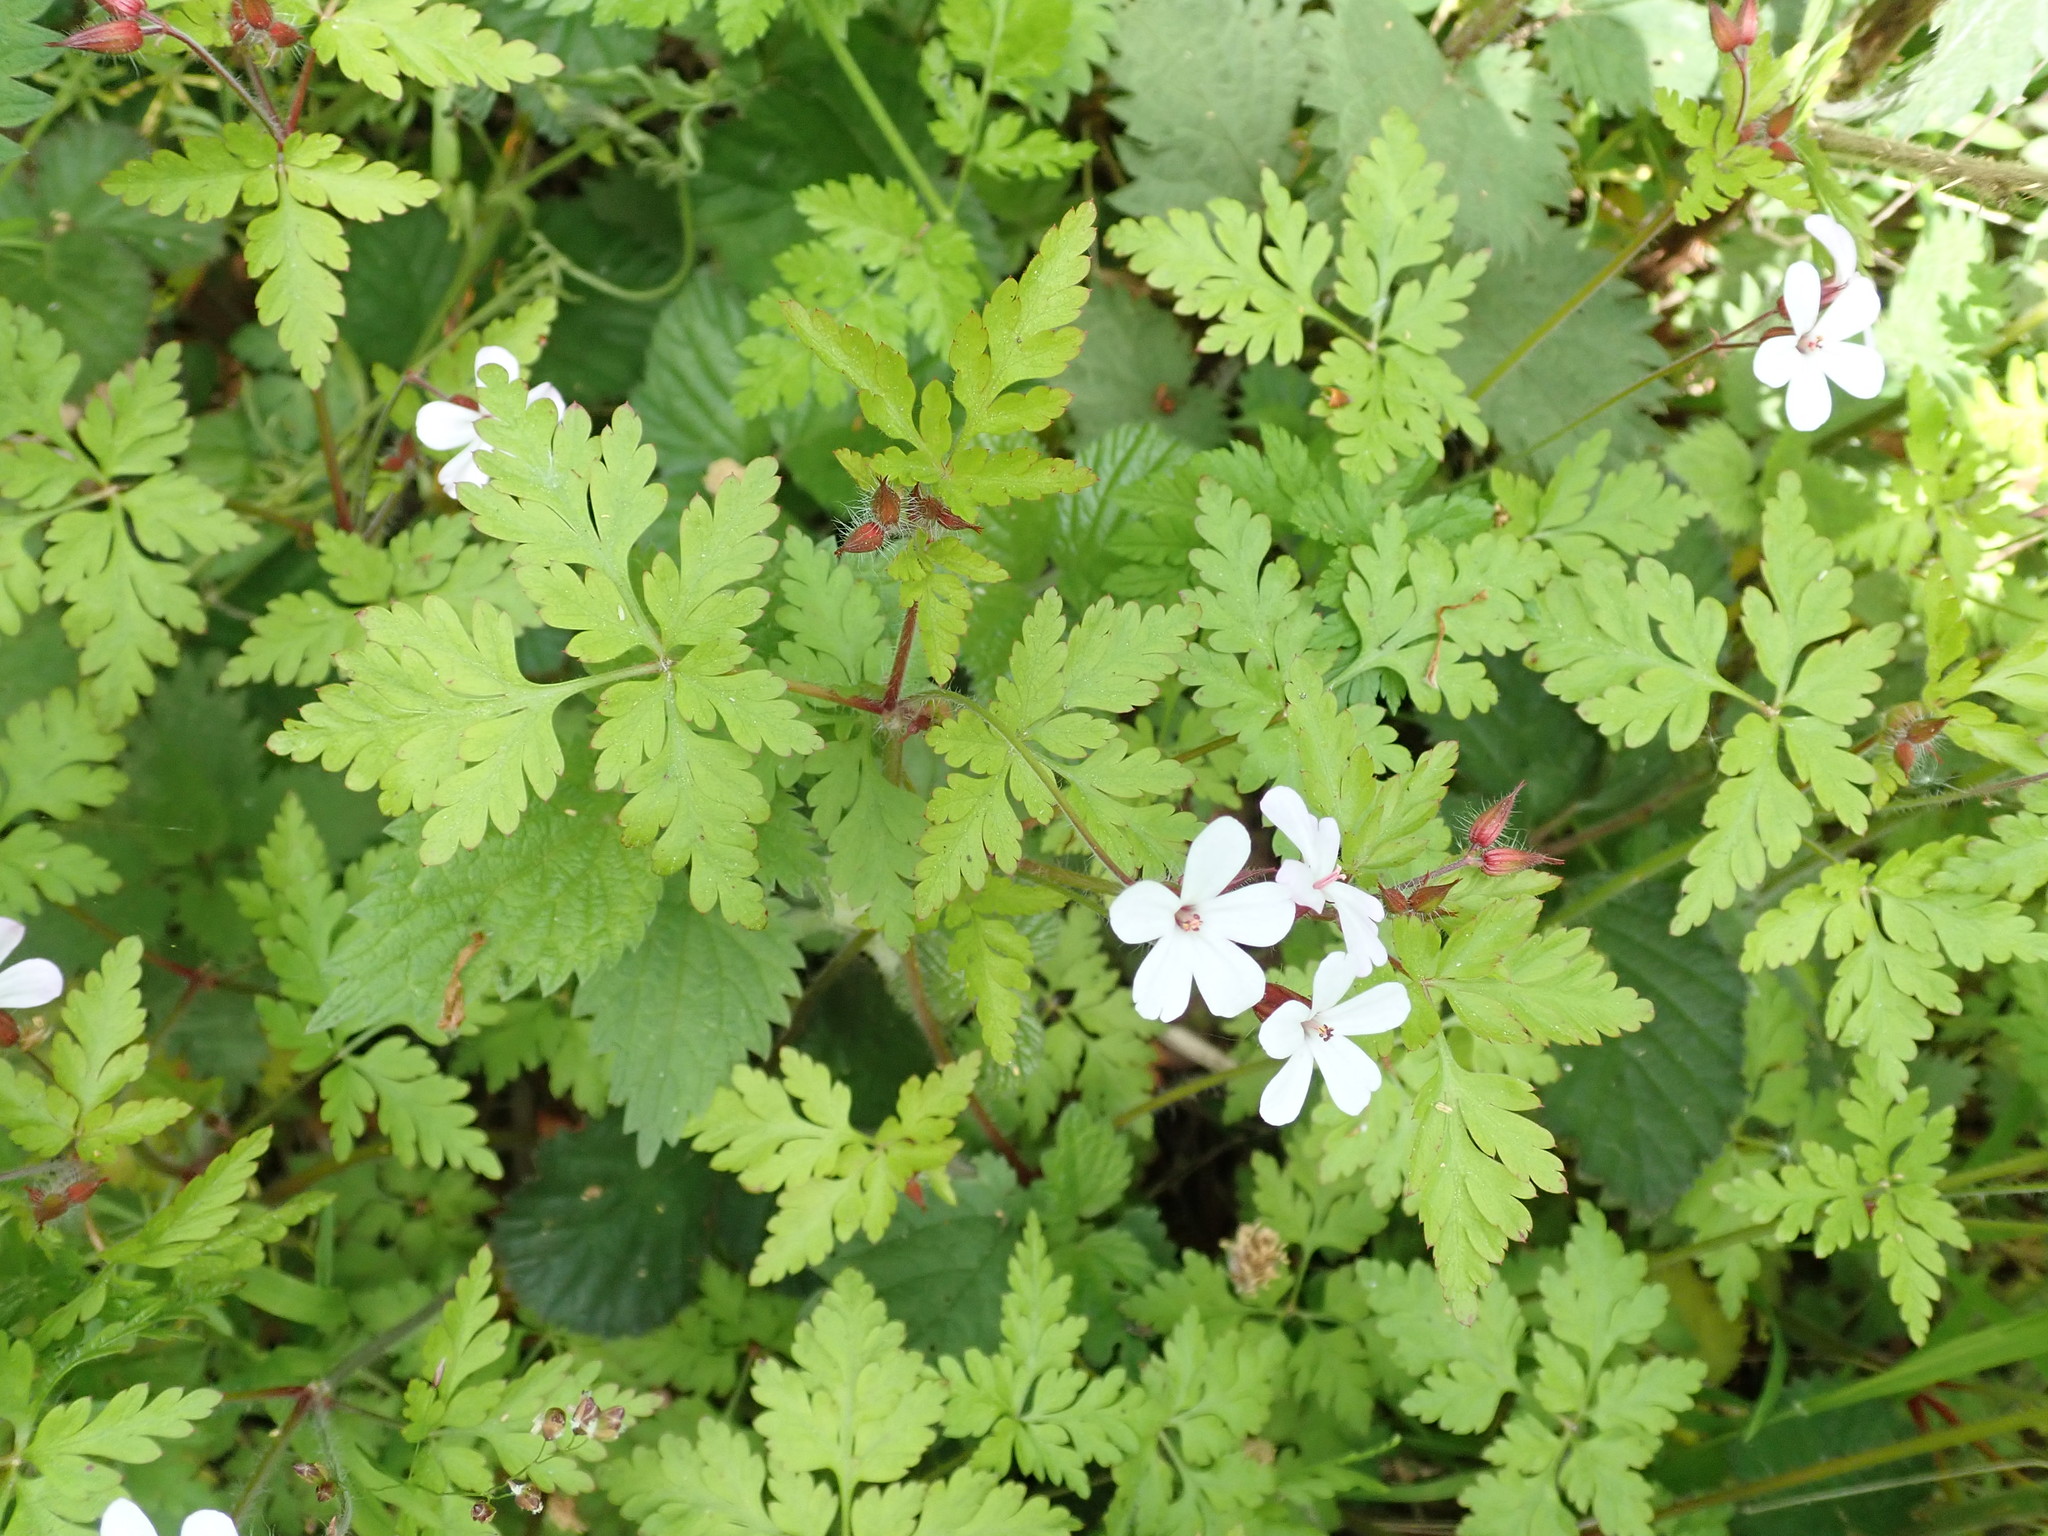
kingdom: Plantae
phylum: Tracheophyta
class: Magnoliopsida
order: Geraniales
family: Geraniaceae
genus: Geranium
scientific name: Geranium robertianum
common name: Herb-robert
